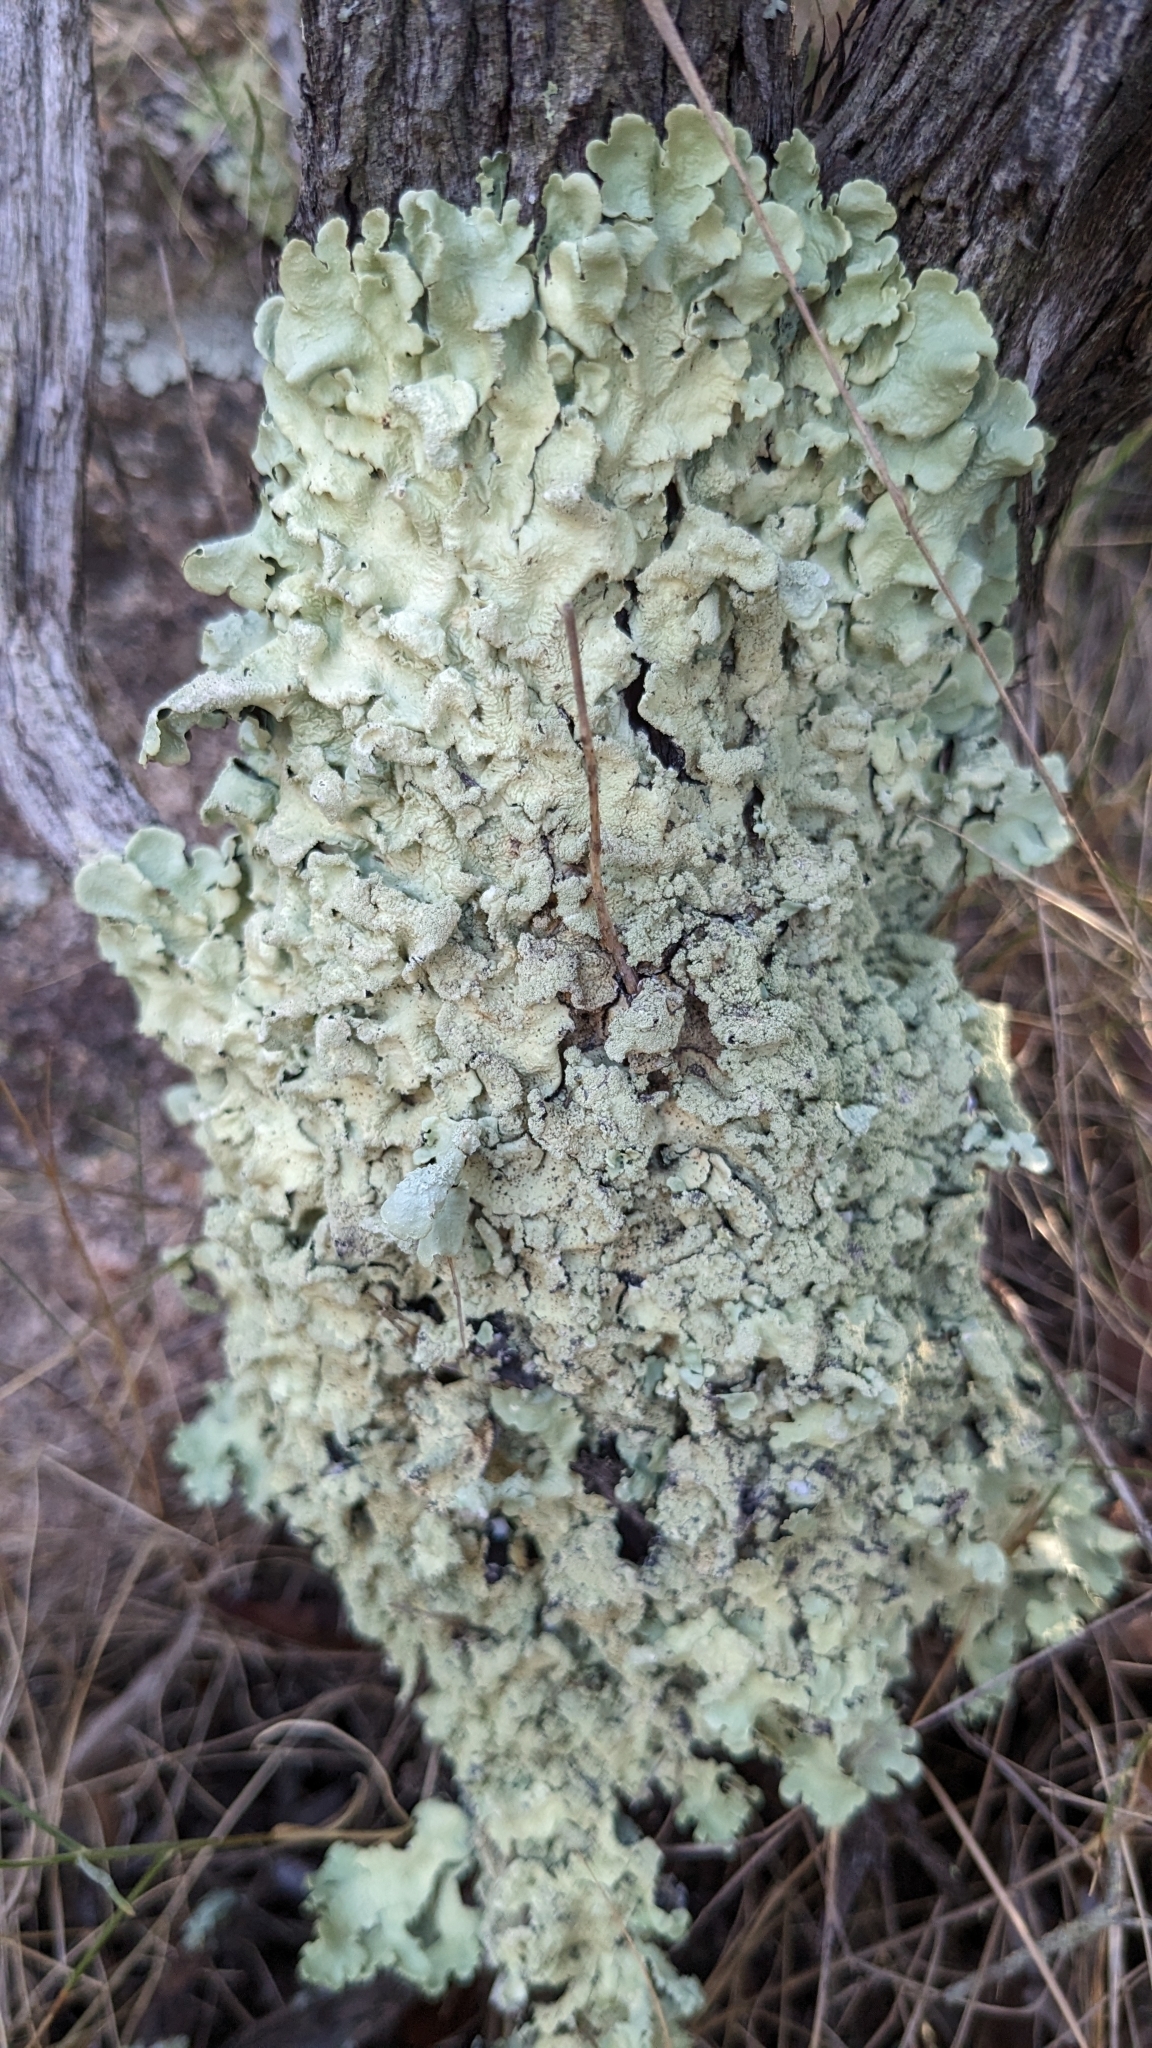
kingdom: Fungi
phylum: Ascomycota
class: Lecanoromycetes
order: Lecanorales
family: Parmeliaceae
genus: Flavoparmelia
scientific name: Flavoparmelia caperata
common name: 40-mile per hour lichen
